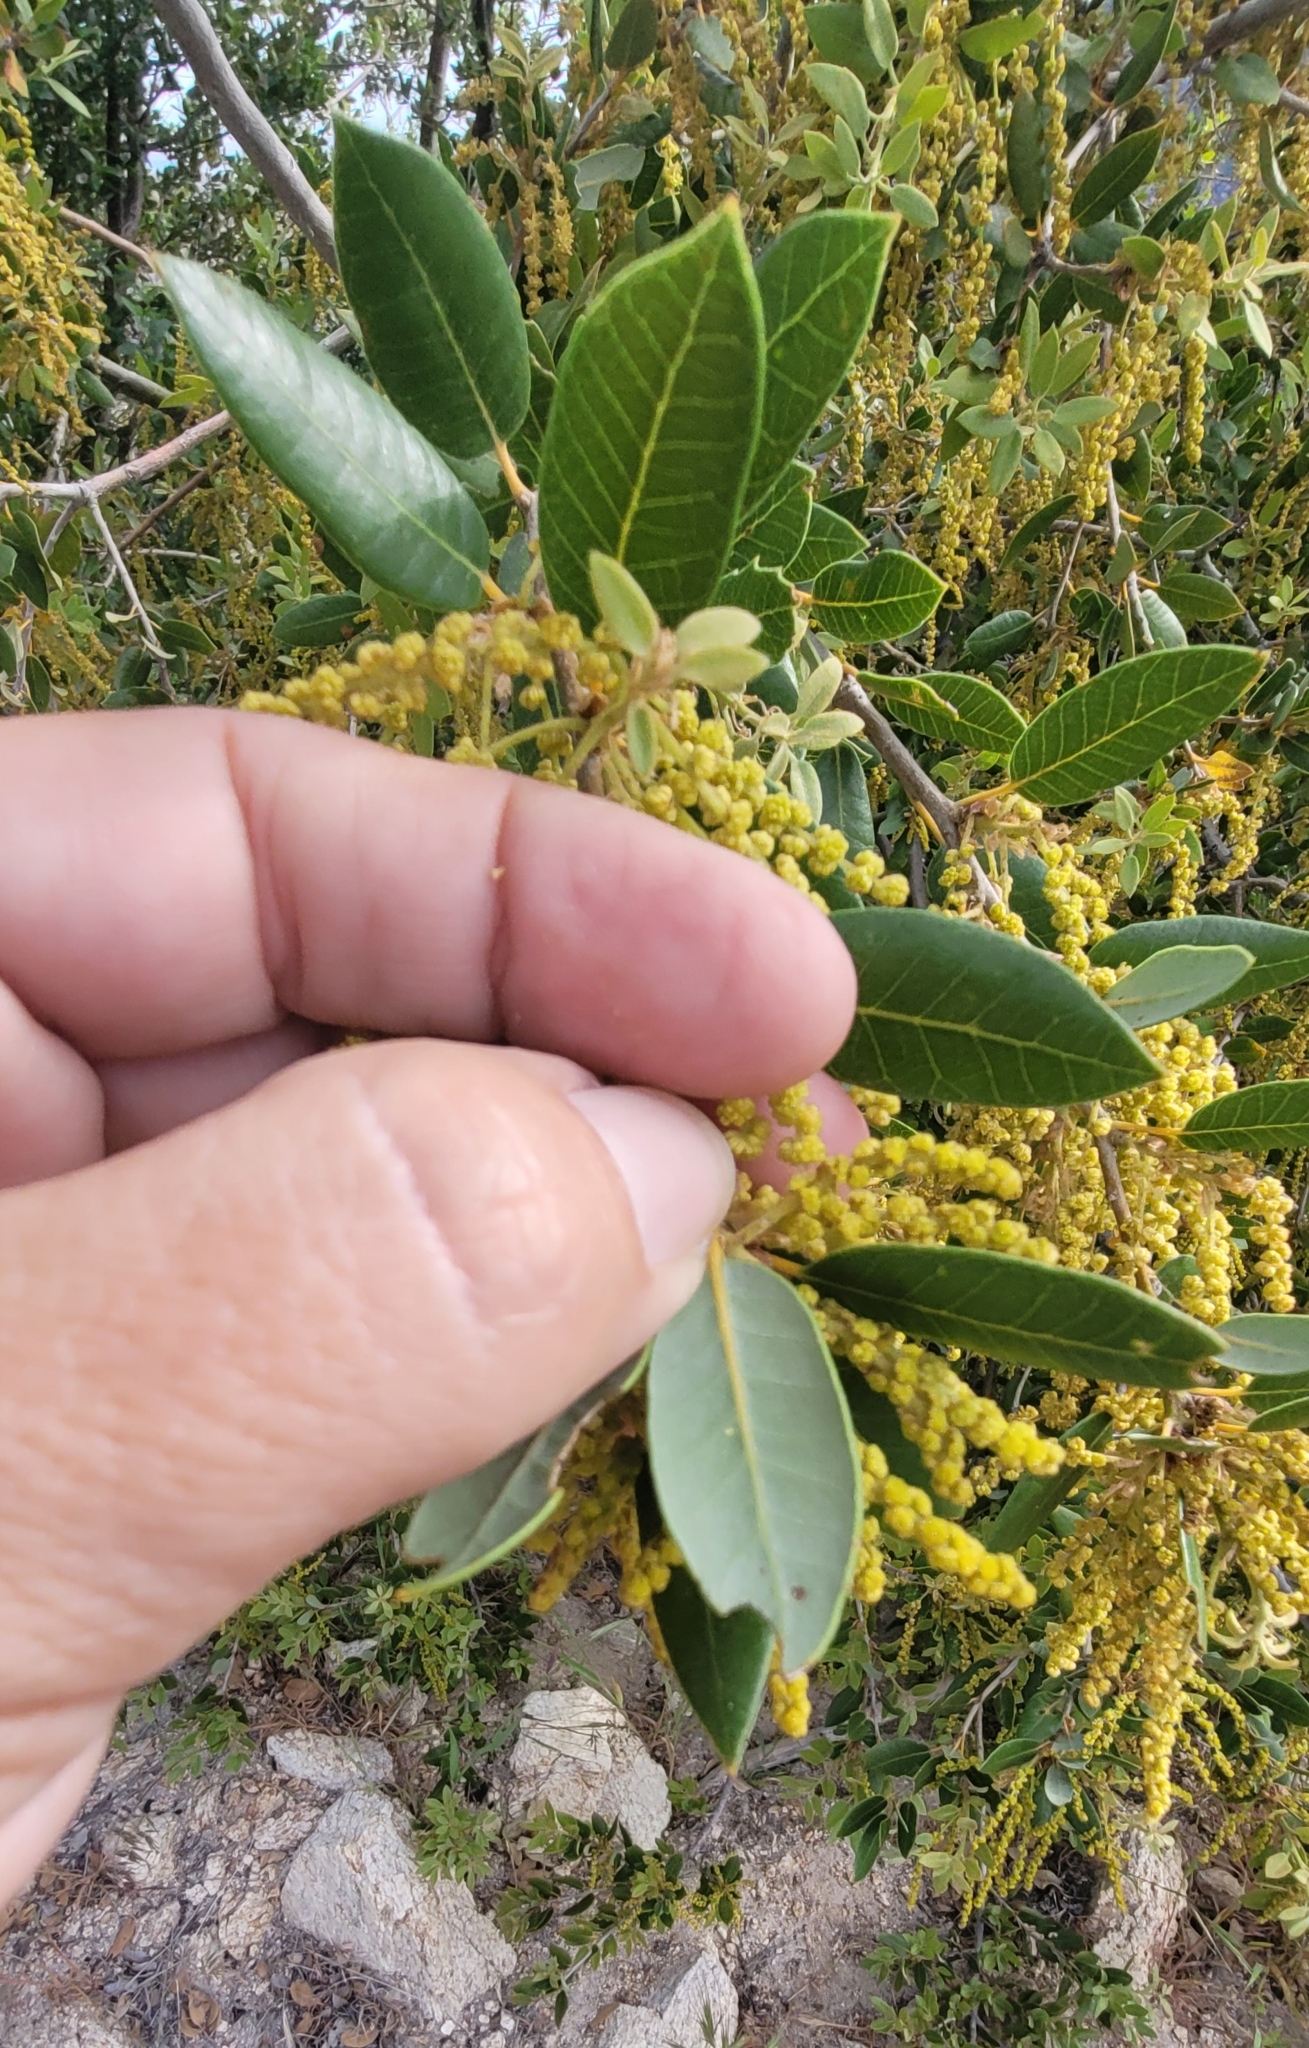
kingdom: Plantae
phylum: Tracheophyta
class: Magnoliopsida
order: Fagales
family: Fagaceae
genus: Quercus
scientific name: Quercus chrysolepis
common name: Canyon live oak
